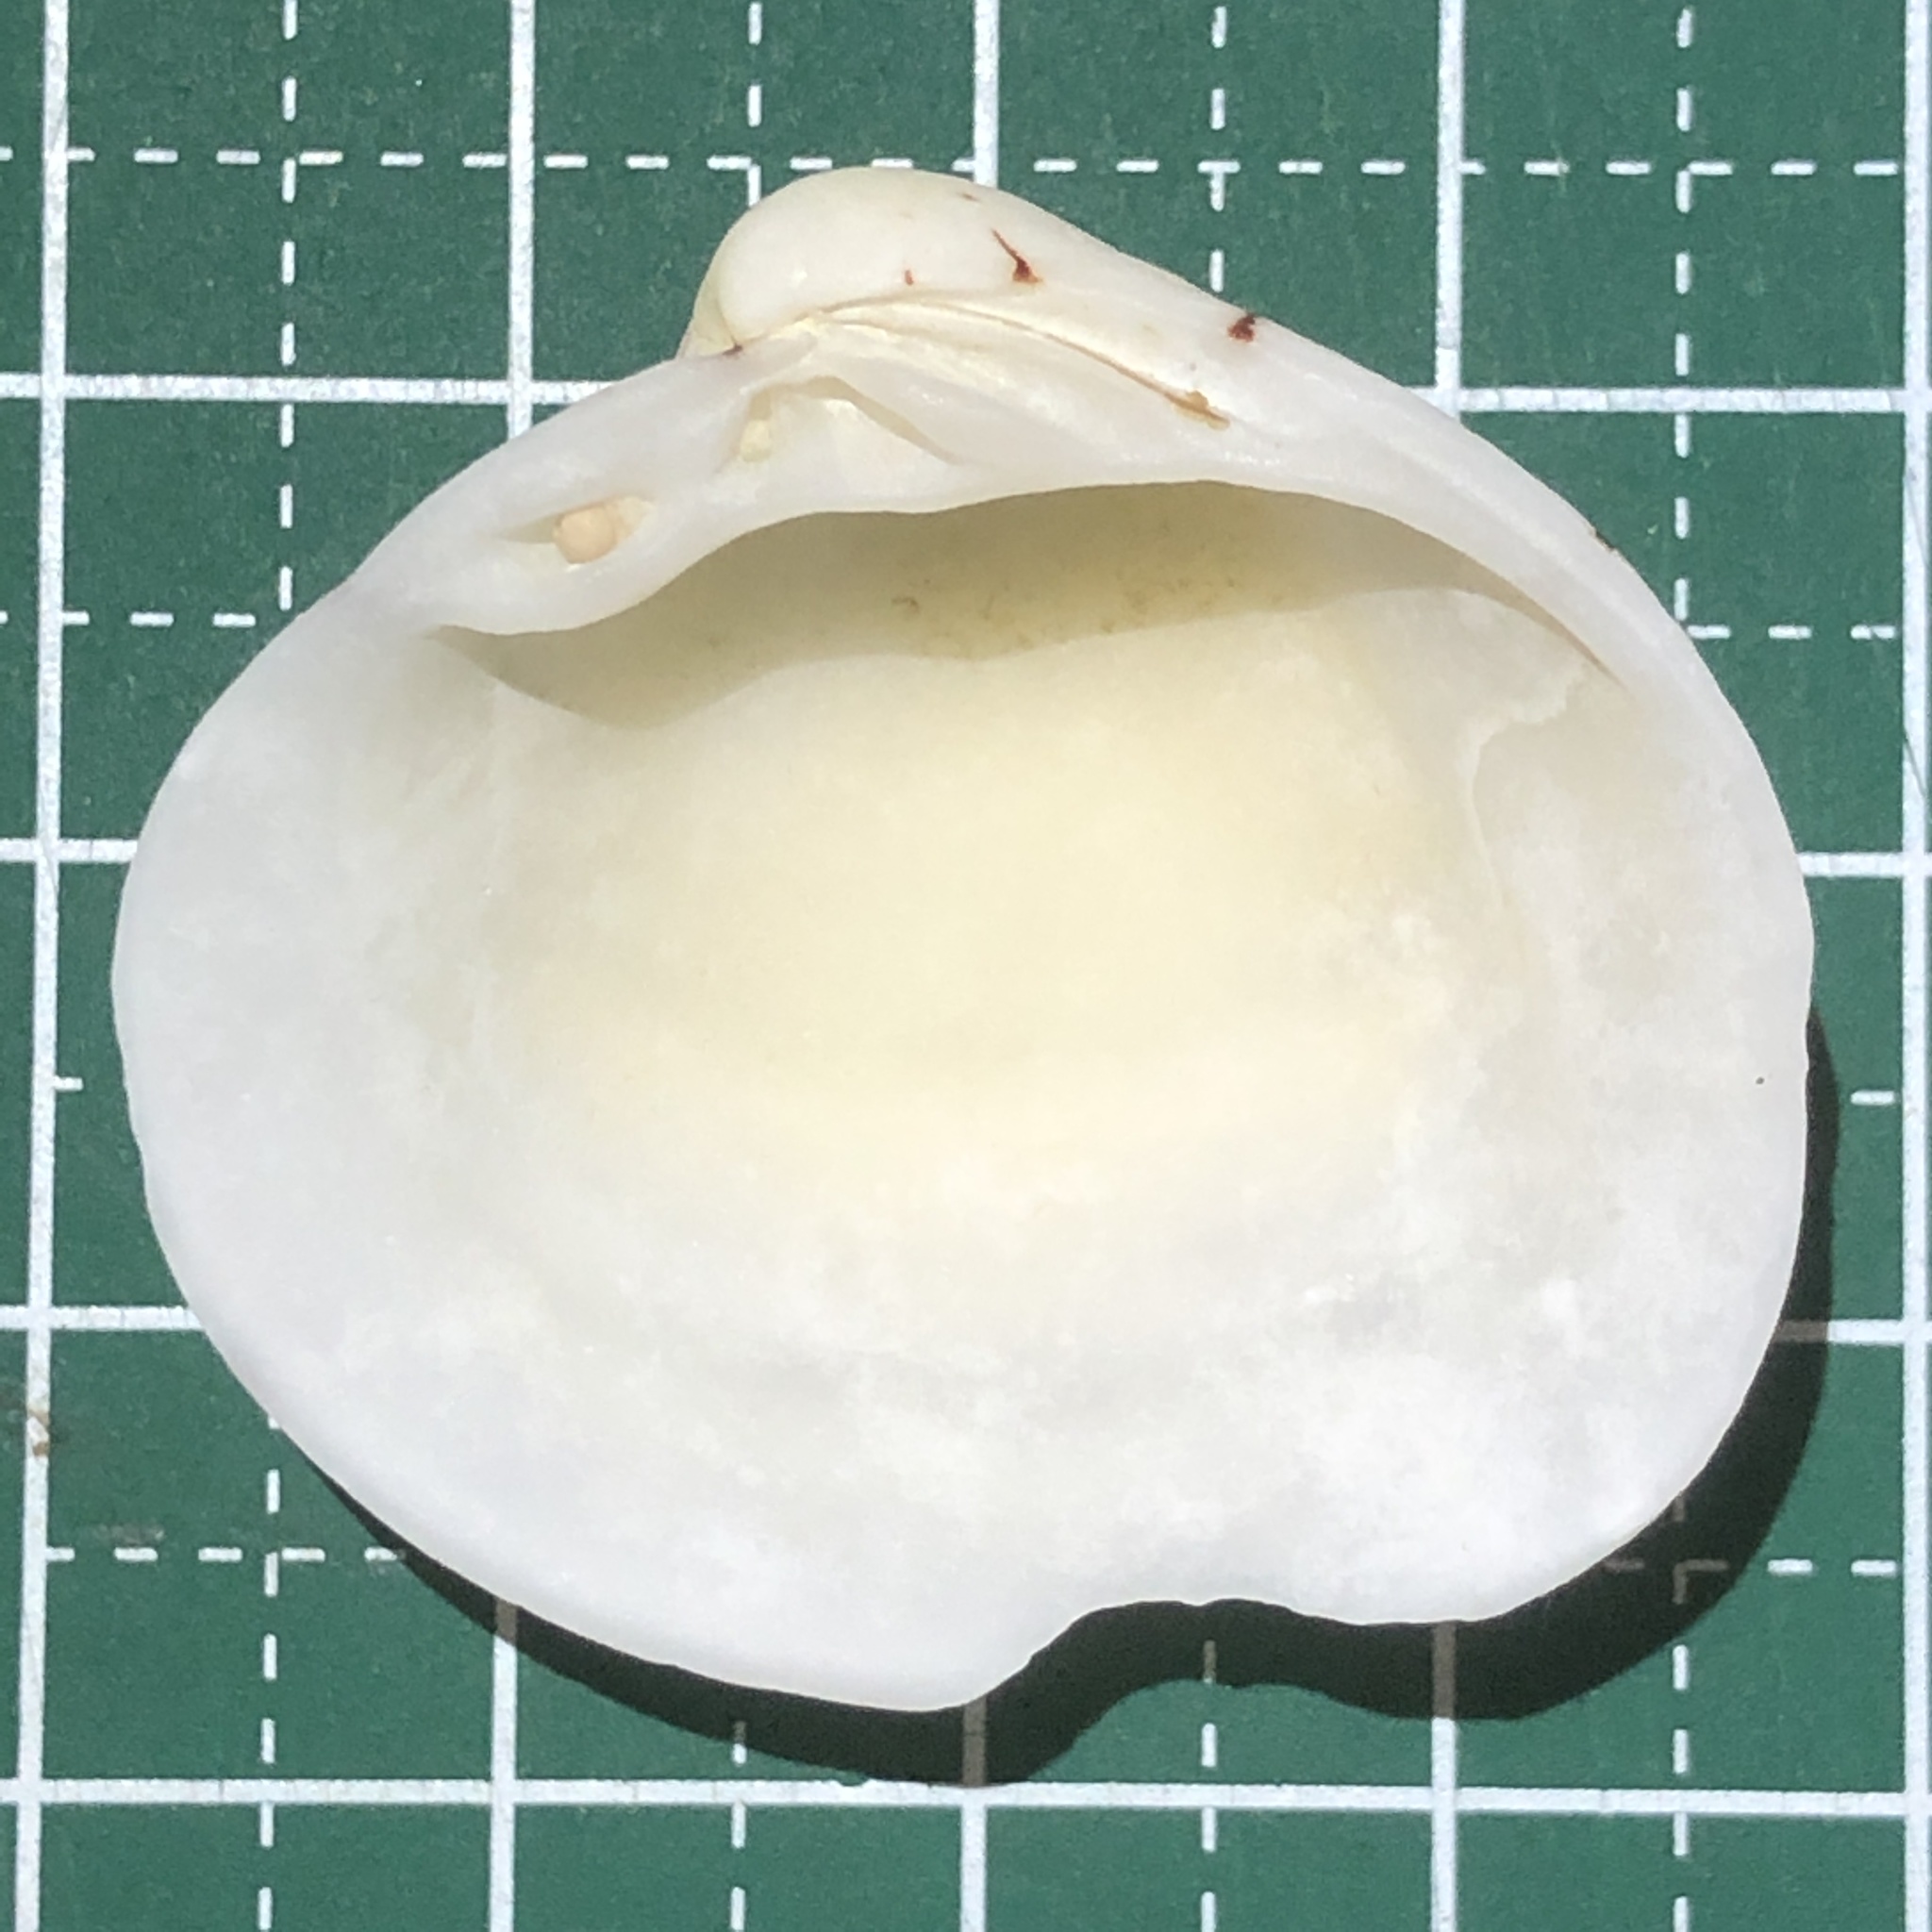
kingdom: Animalia
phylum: Mollusca
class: Bivalvia
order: Venerida
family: Veneridae
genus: Lioconcha
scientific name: Lioconcha castrensis
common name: Camp pitar-venus
